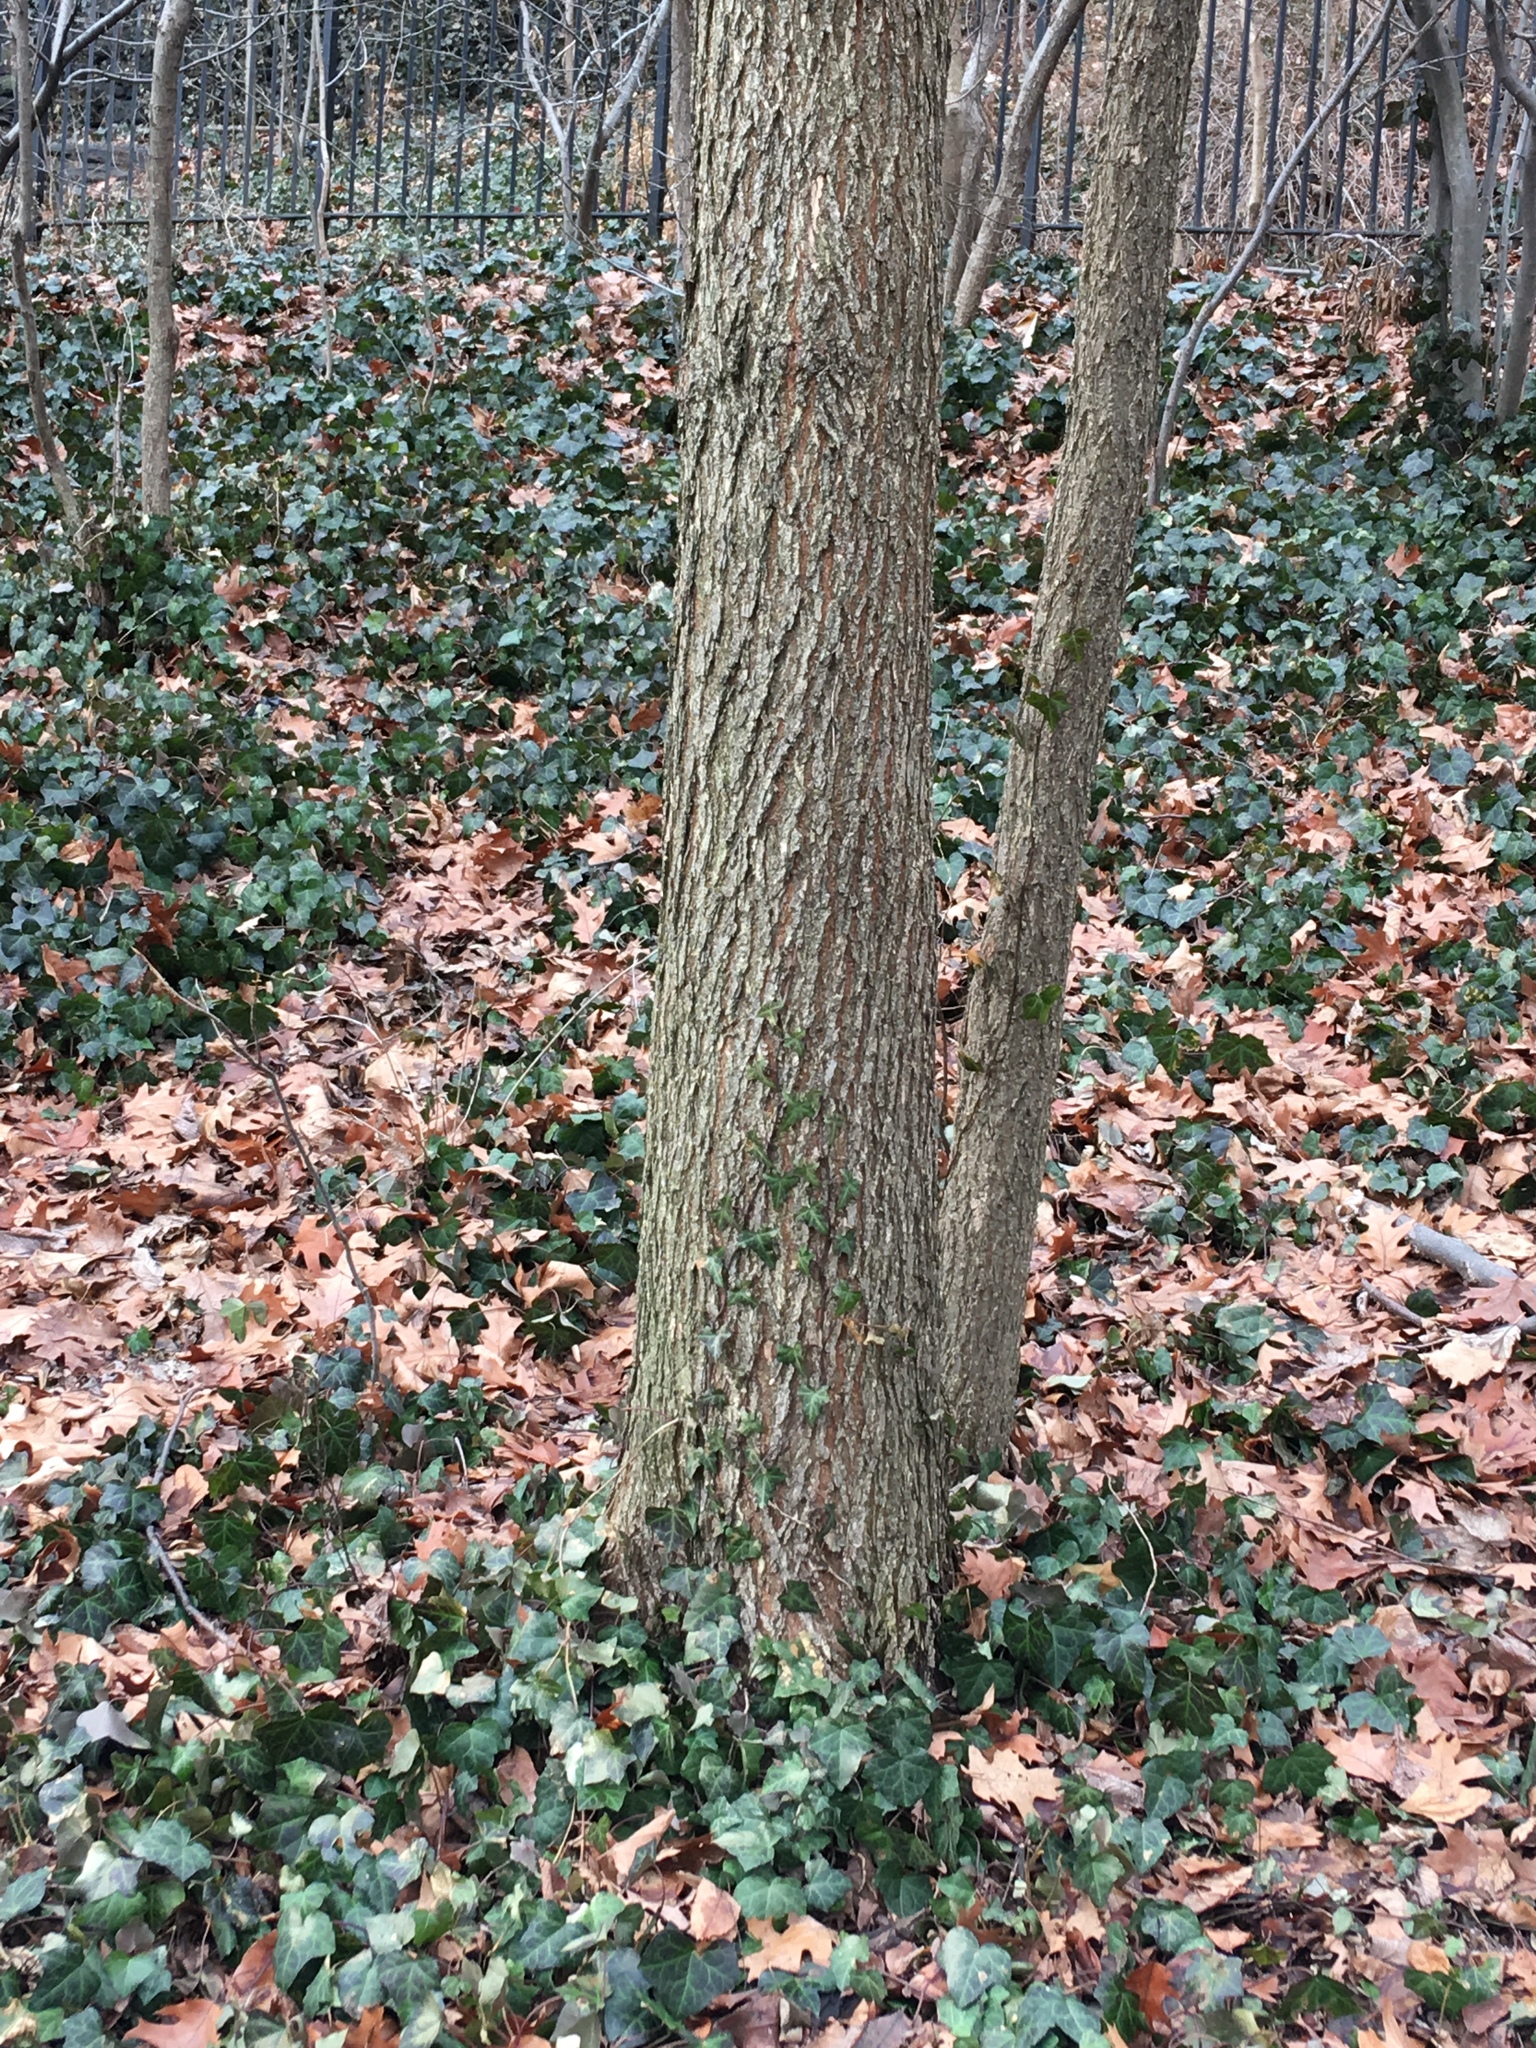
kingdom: Plantae
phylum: Tracheophyta
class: Magnoliopsida
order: Apiales
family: Araliaceae
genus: Hedera
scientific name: Hedera helix
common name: Ivy
